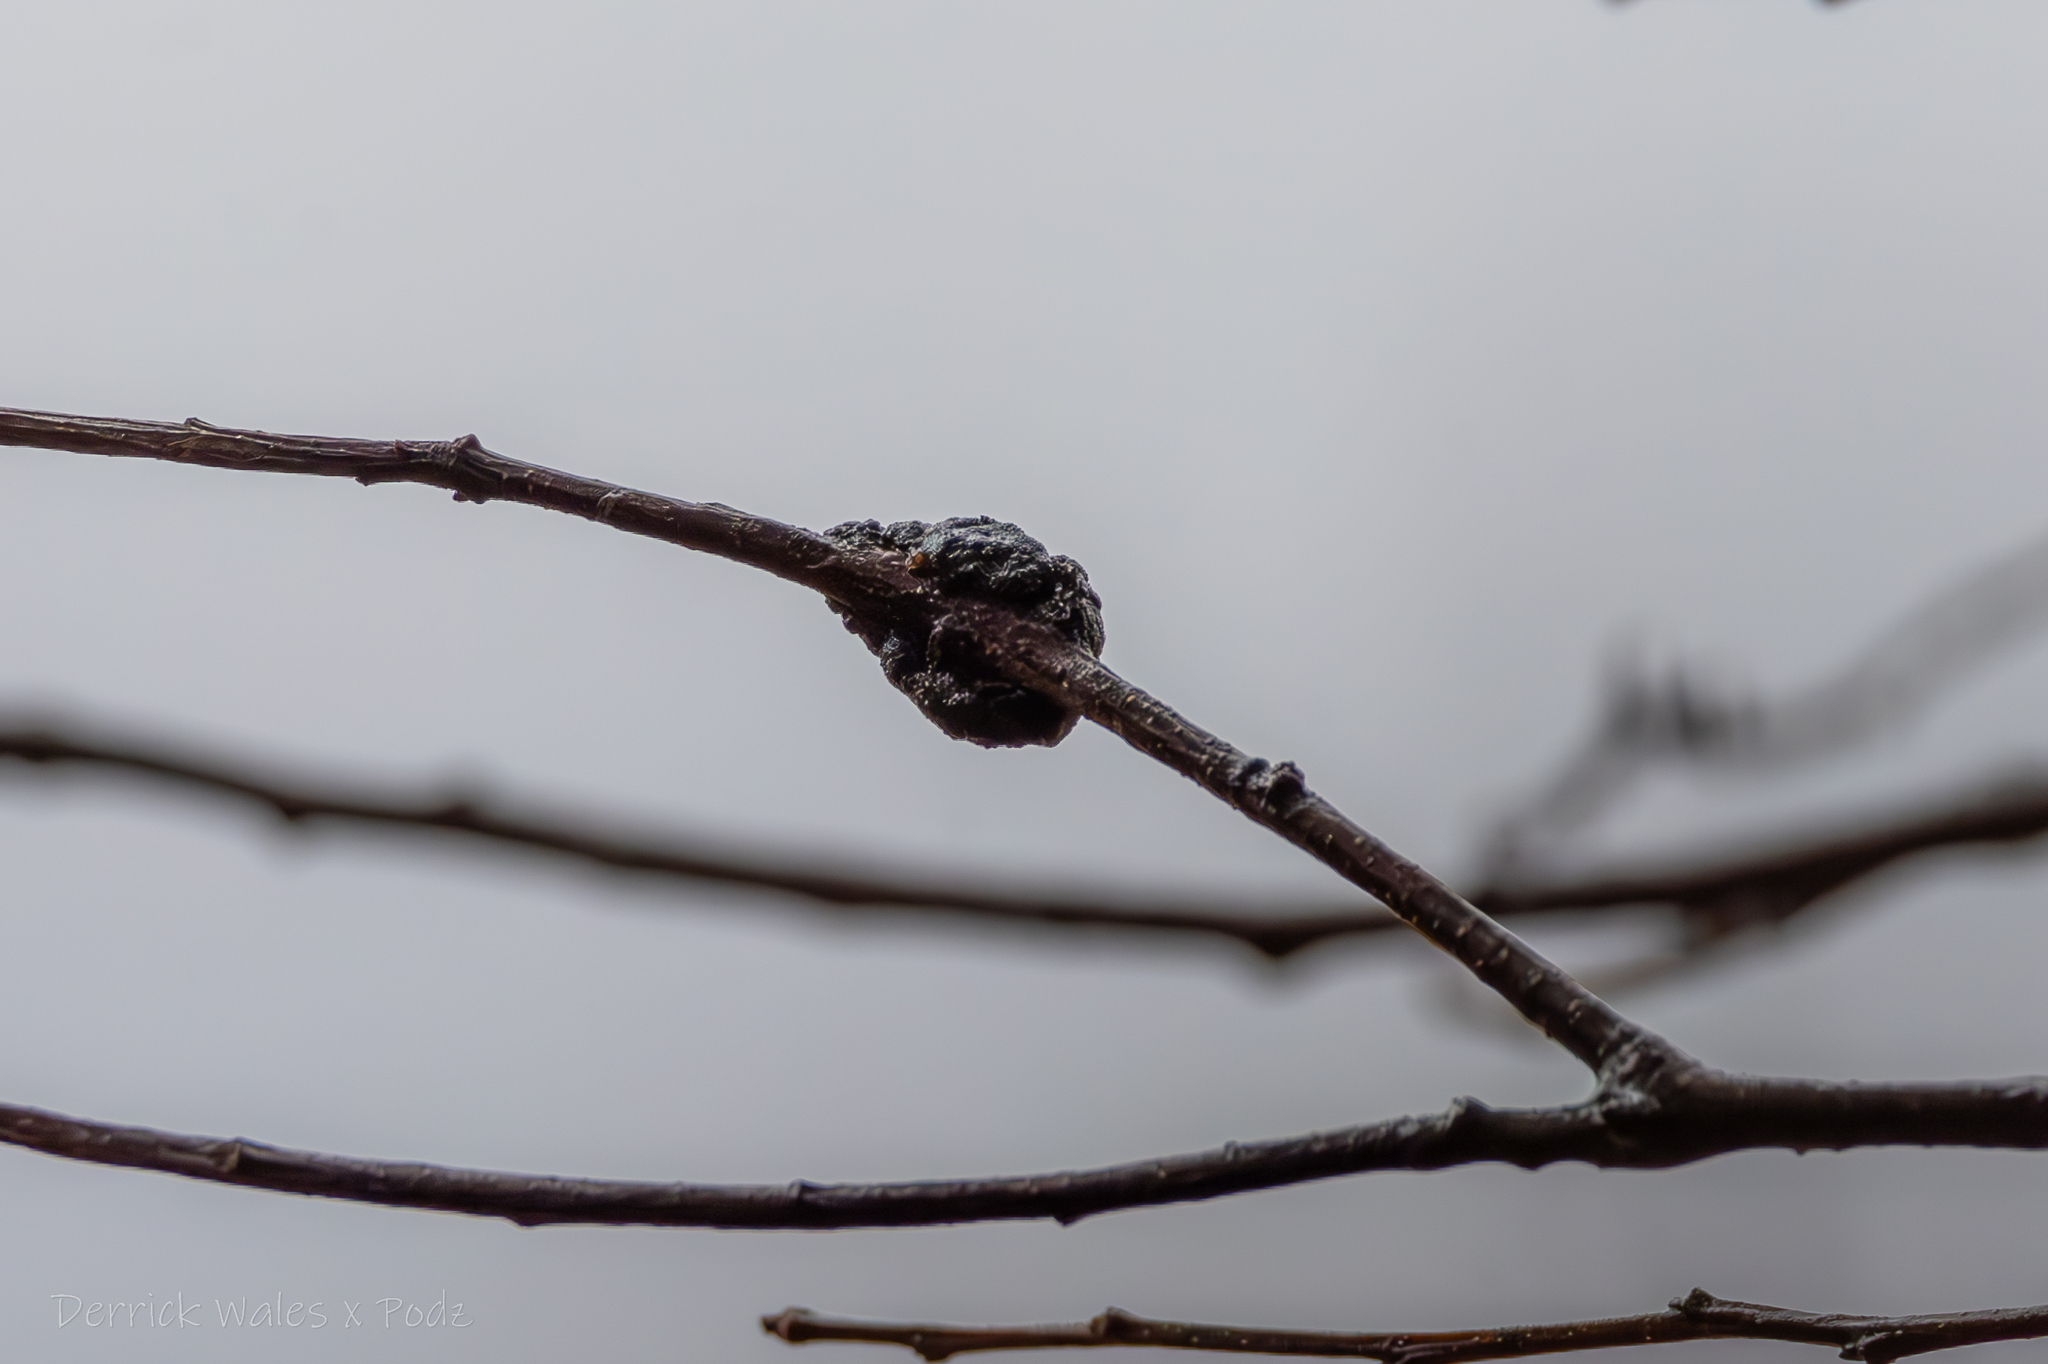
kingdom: Fungi
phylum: Ascomycota
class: Dothideomycetes
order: Venturiales
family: Venturiaceae
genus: Apiosporina
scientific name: Apiosporina morbosa
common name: Black knot
